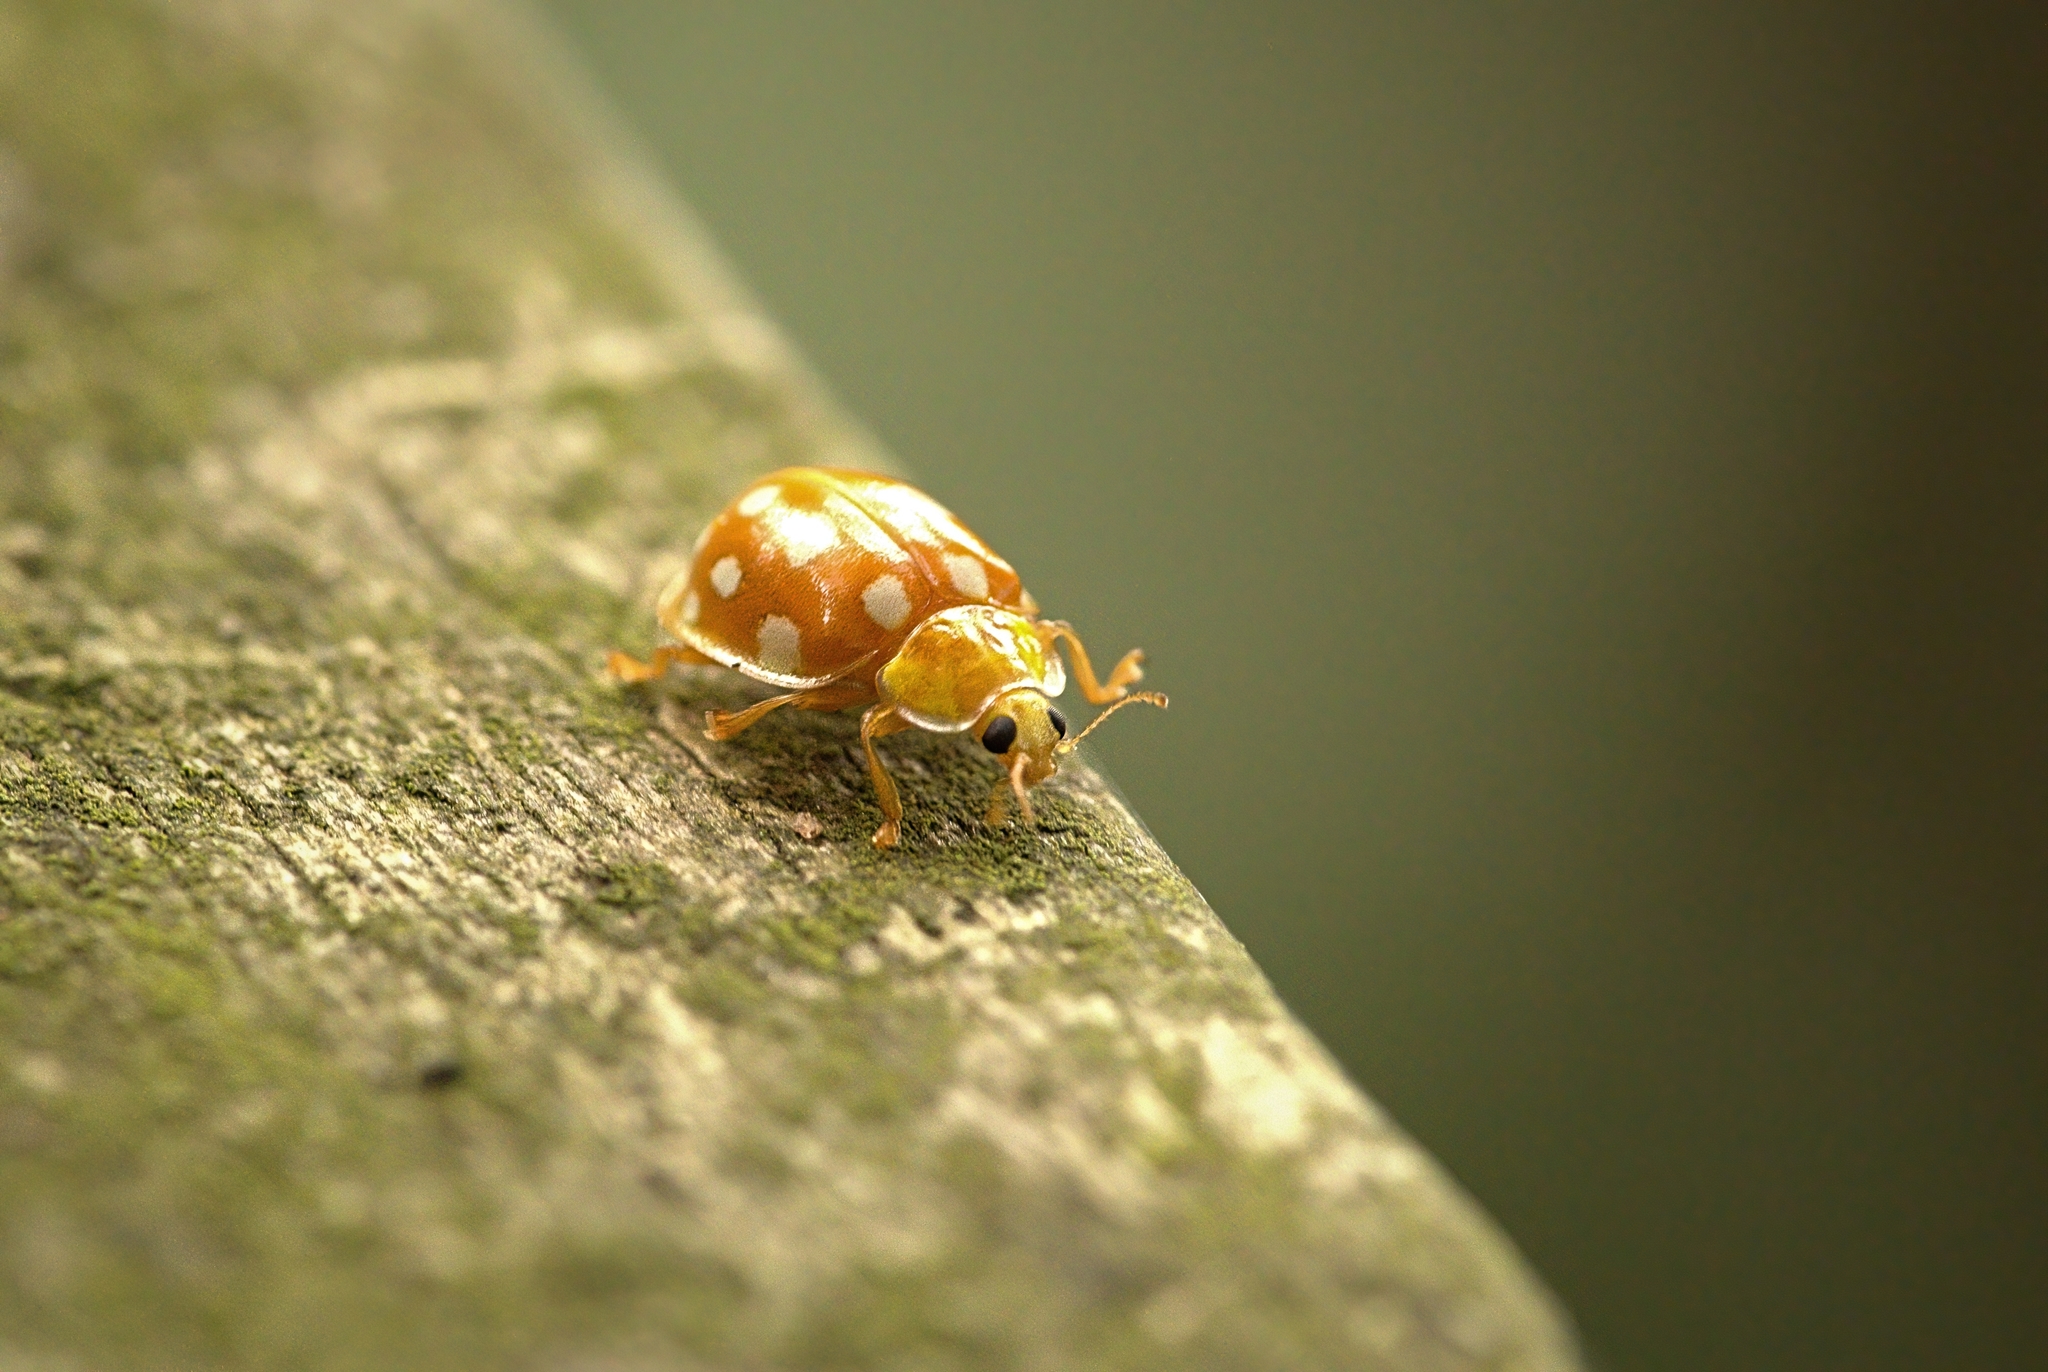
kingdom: Animalia
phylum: Arthropoda
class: Insecta
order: Coleoptera
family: Coccinellidae
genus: Halyzia
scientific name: Halyzia sedecimguttata
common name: Orange ladybird
